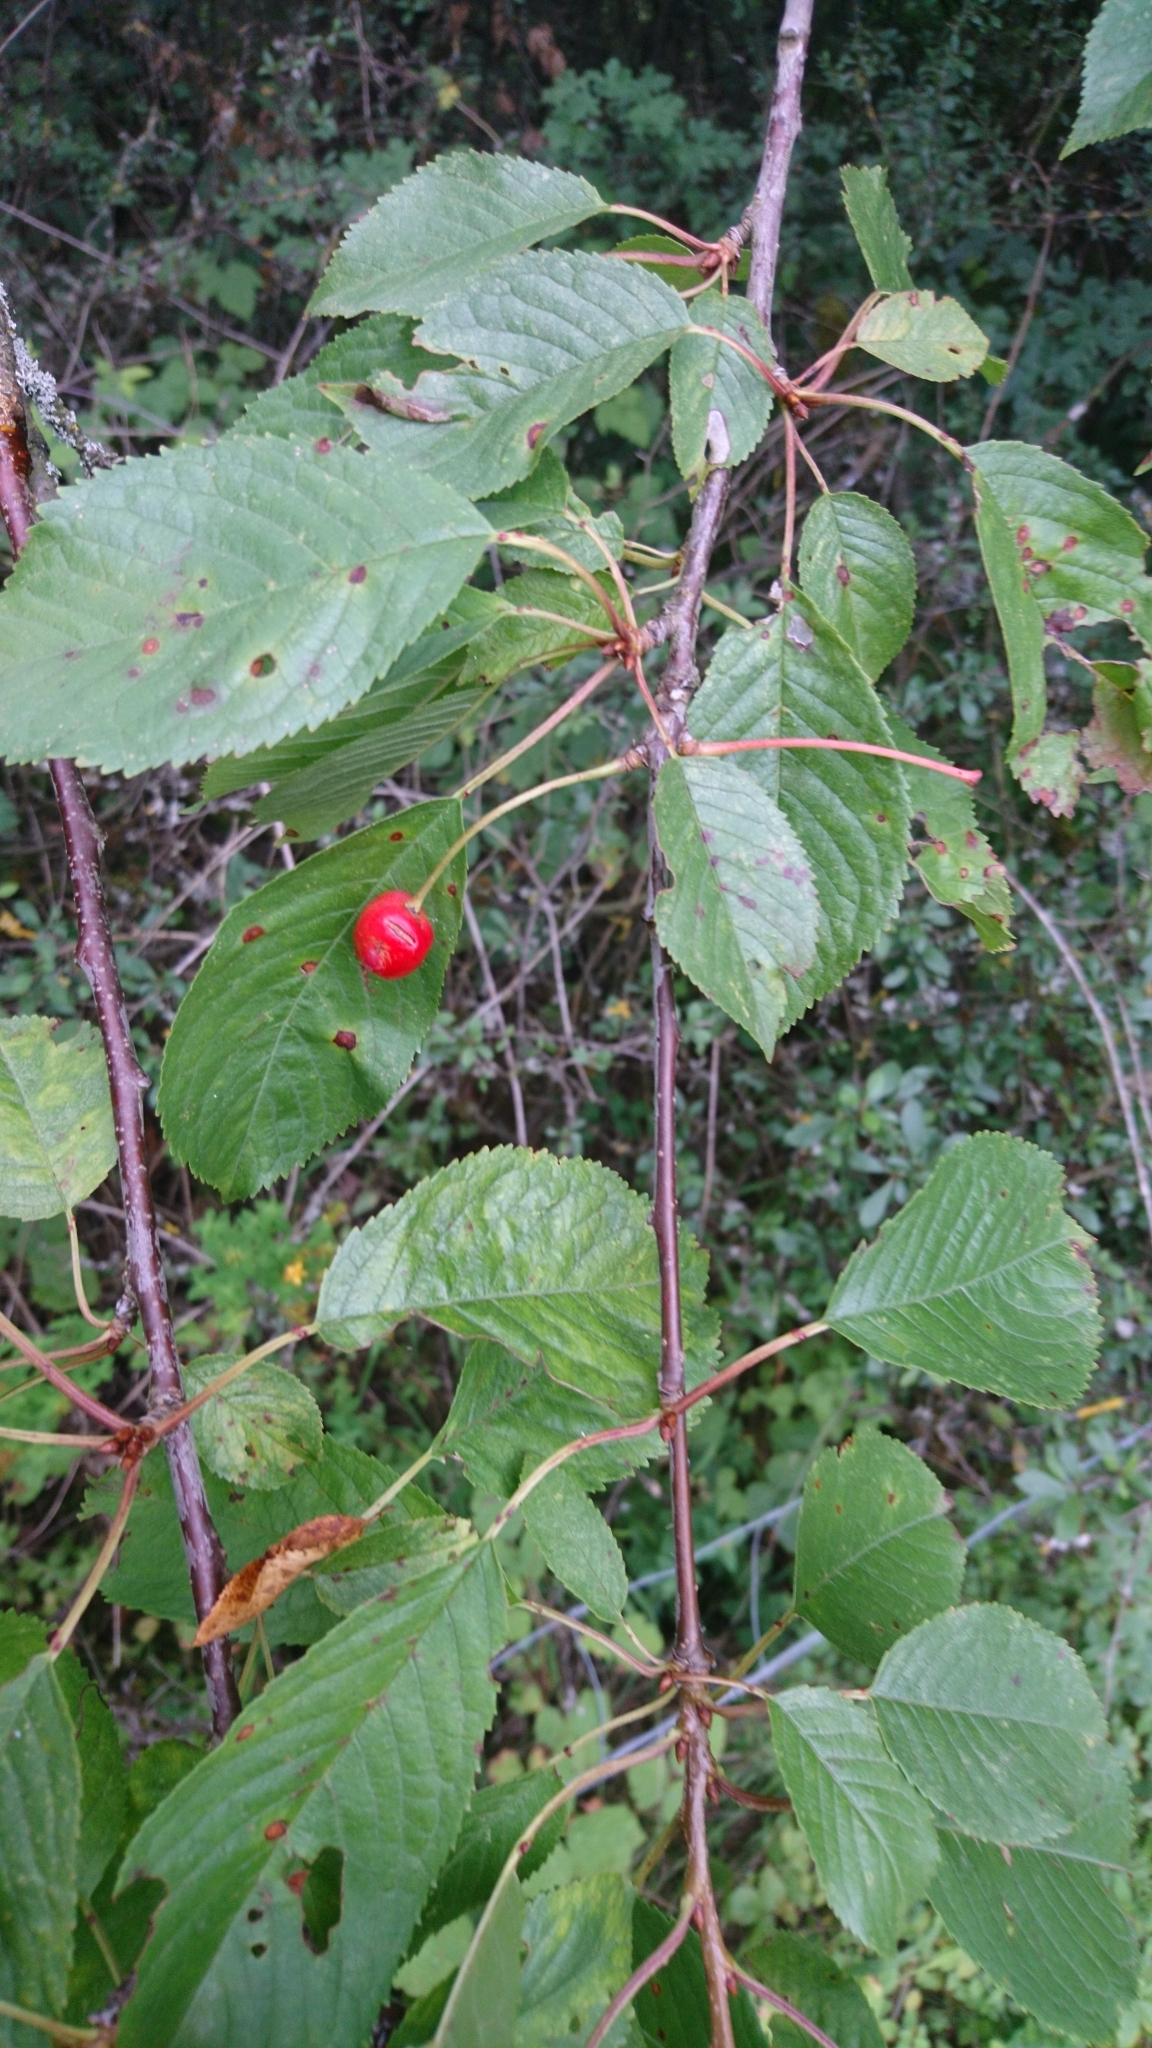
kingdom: Plantae
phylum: Tracheophyta
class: Magnoliopsida
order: Rosales
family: Rosaceae
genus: Prunus
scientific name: Prunus avium
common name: Sweet cherry
